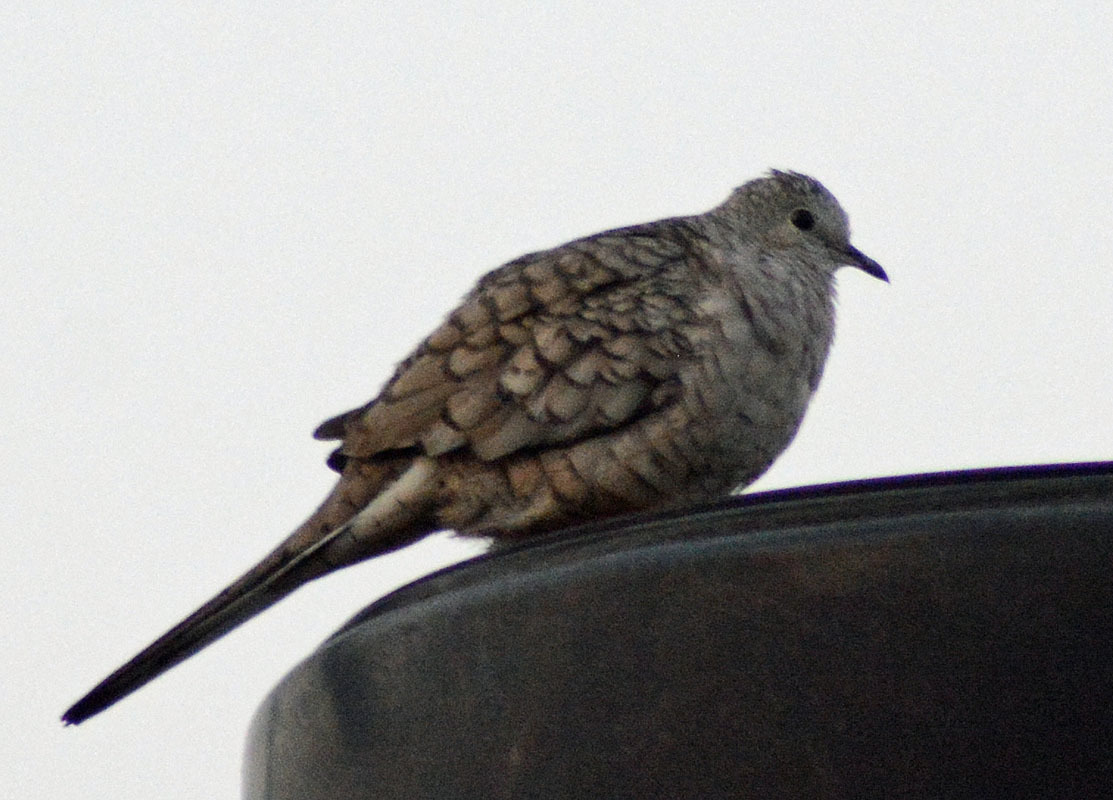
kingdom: Animalia
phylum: Chordata
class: Aves
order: Columbiformes
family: Columbidae
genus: Columbina
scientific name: Columbina inca
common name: Inca dove
